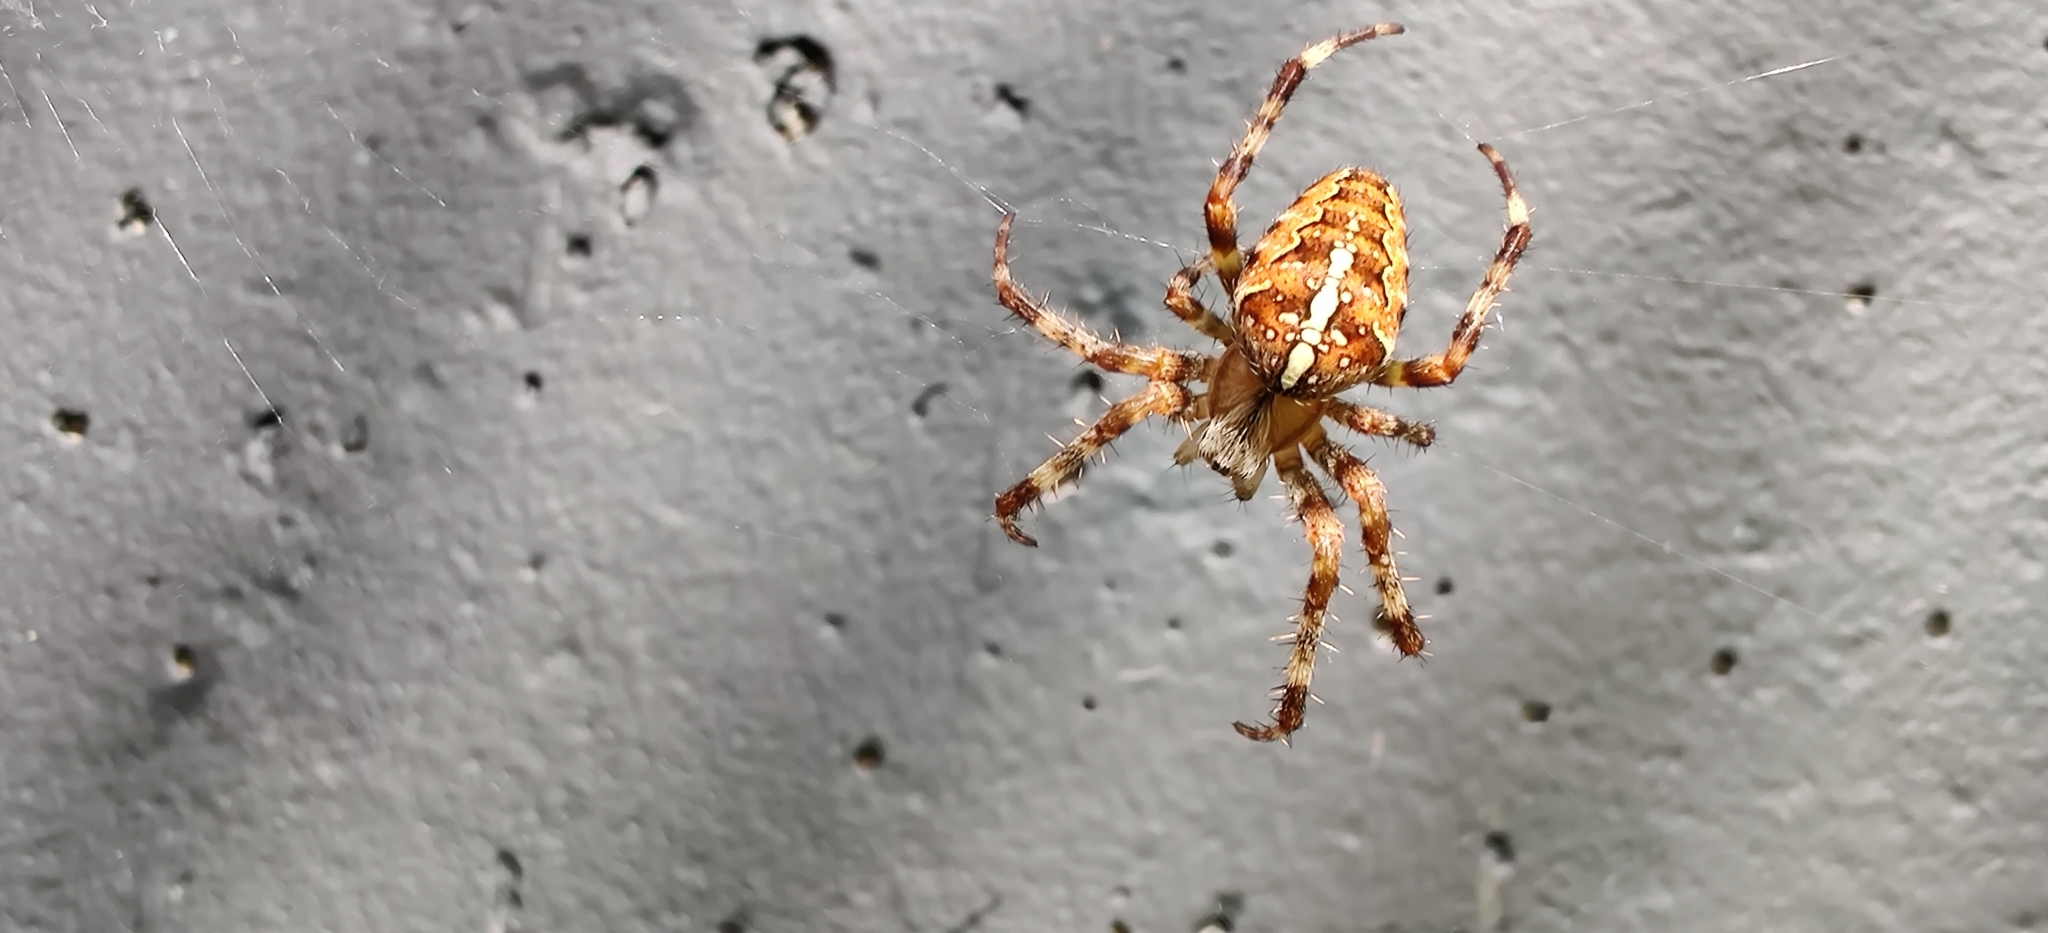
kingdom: Animalia
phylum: Arthropoda
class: Arachnida
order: Araneae
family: Araneidae
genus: Araneus
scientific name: Araneus diadematus
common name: Cross orbweaver
